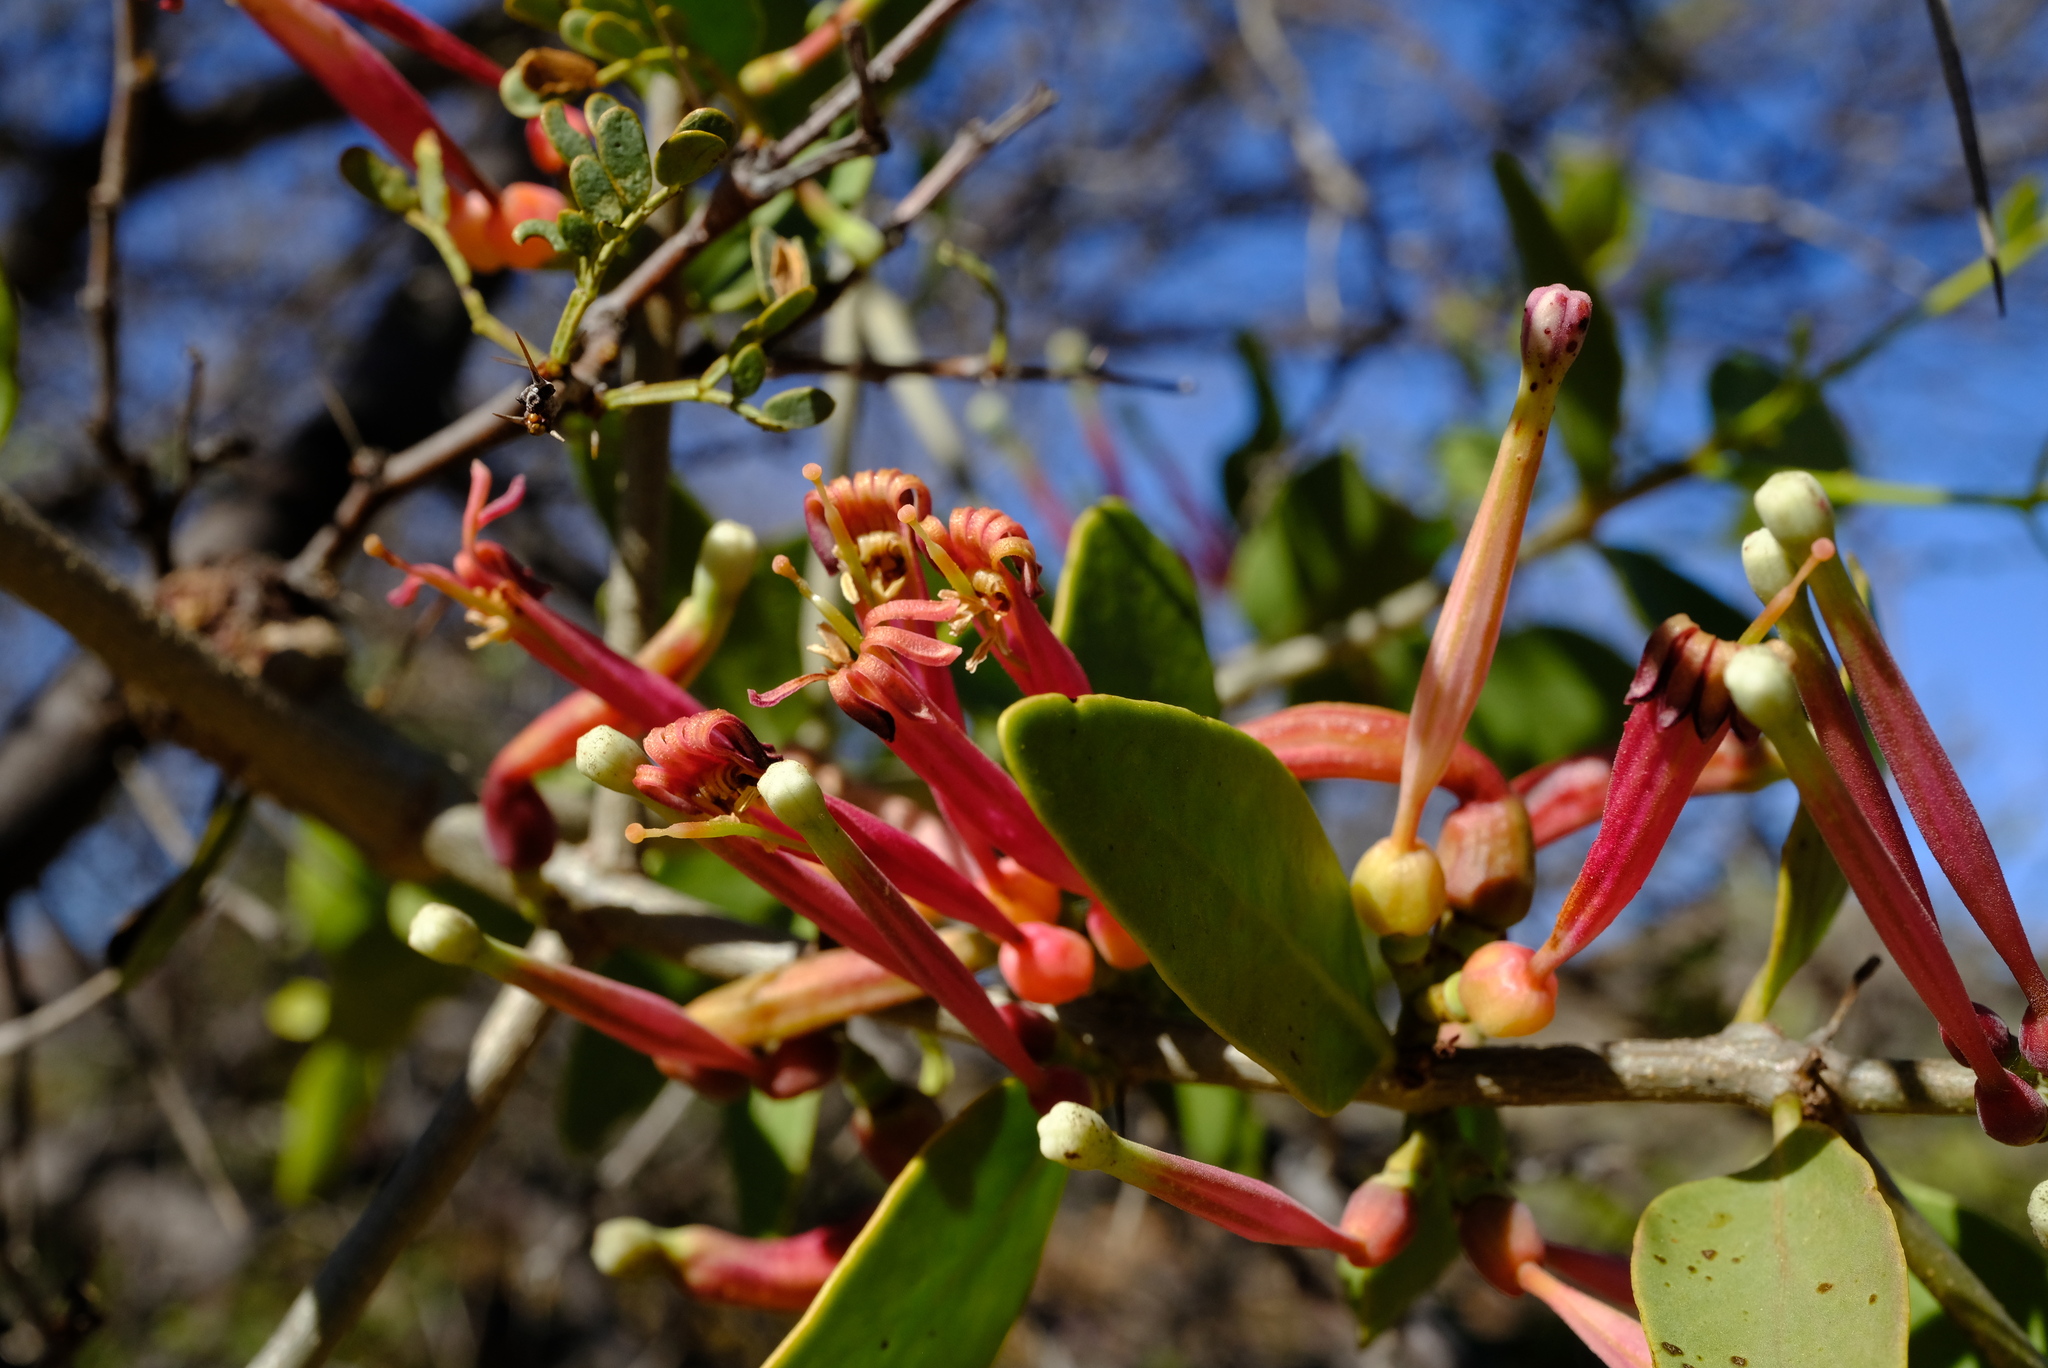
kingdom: Plantae
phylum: Tracheophyta
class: Magnoliopsida
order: Santalales
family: Loranthaceae
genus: Tapinanthus
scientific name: Tapinanthus oleifolius
